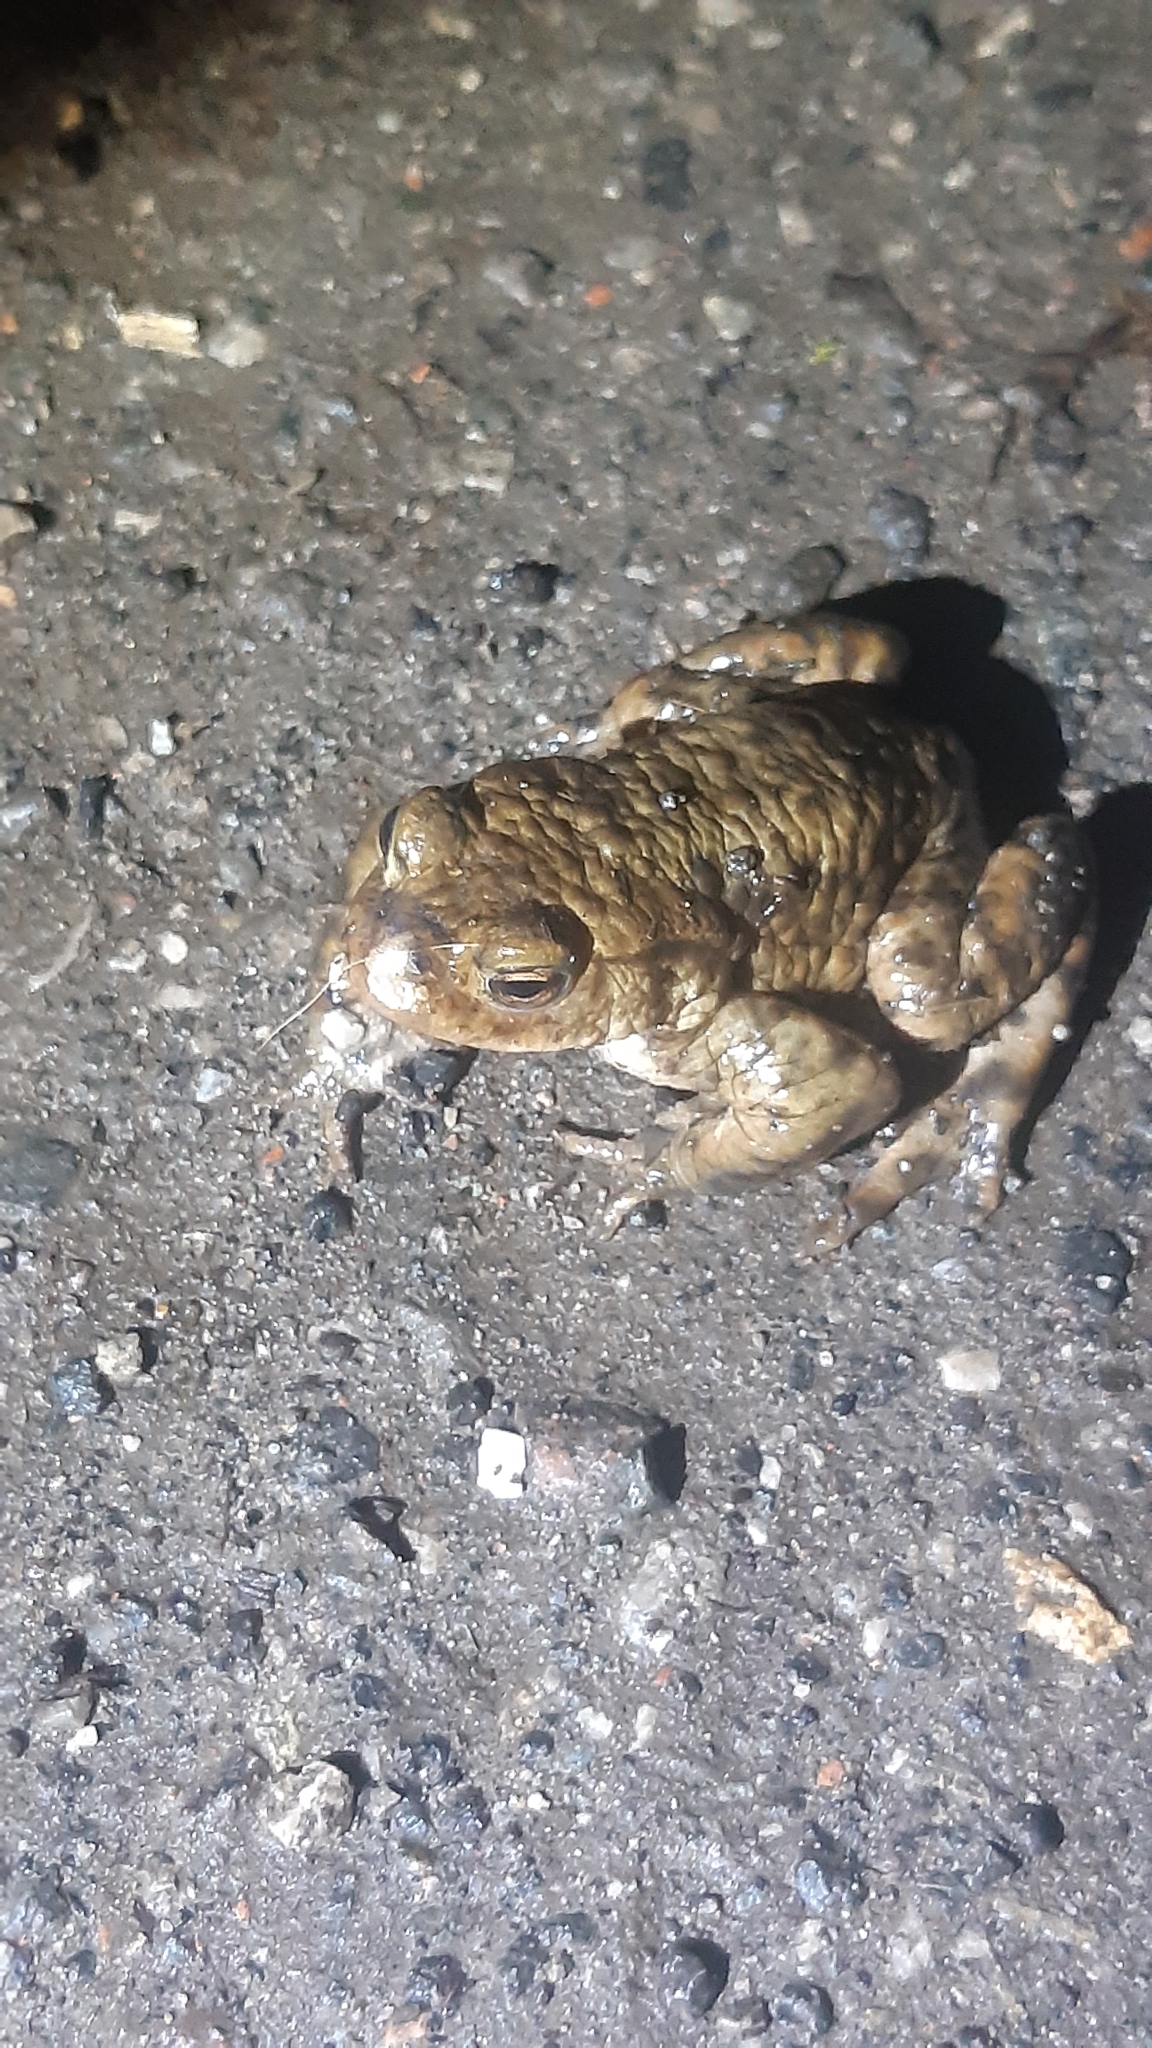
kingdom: Animalia
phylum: Chordata
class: Amphibia
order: Anura
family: Bufonidae
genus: Bufo
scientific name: Bufo bufo
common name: Common toad
